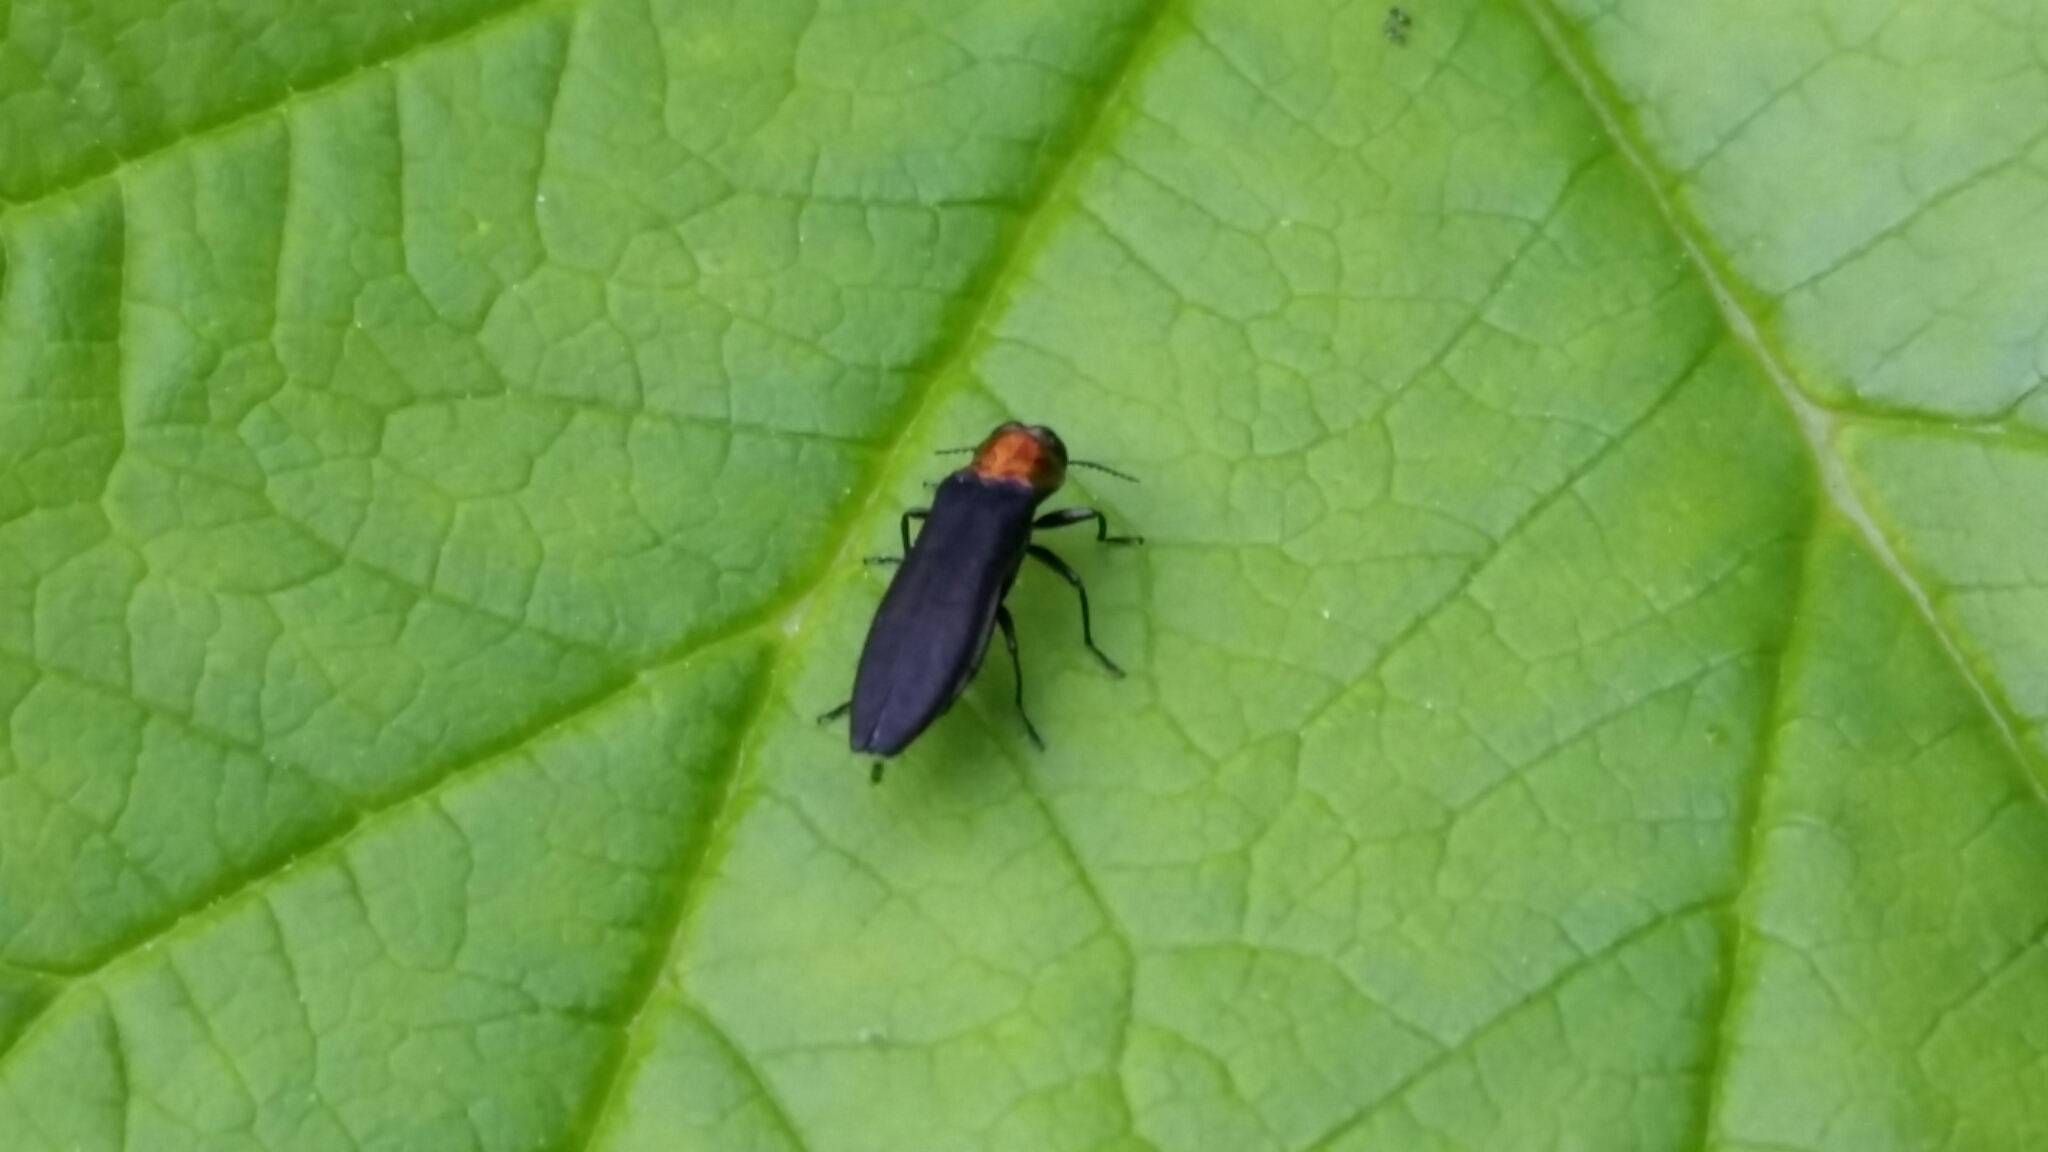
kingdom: Animalia
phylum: Arthropoda
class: Insecta
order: Coleoptera
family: Buprestidae
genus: Agrilus
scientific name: Agrilus ruficollis
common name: Red-necked cane borer beetle
